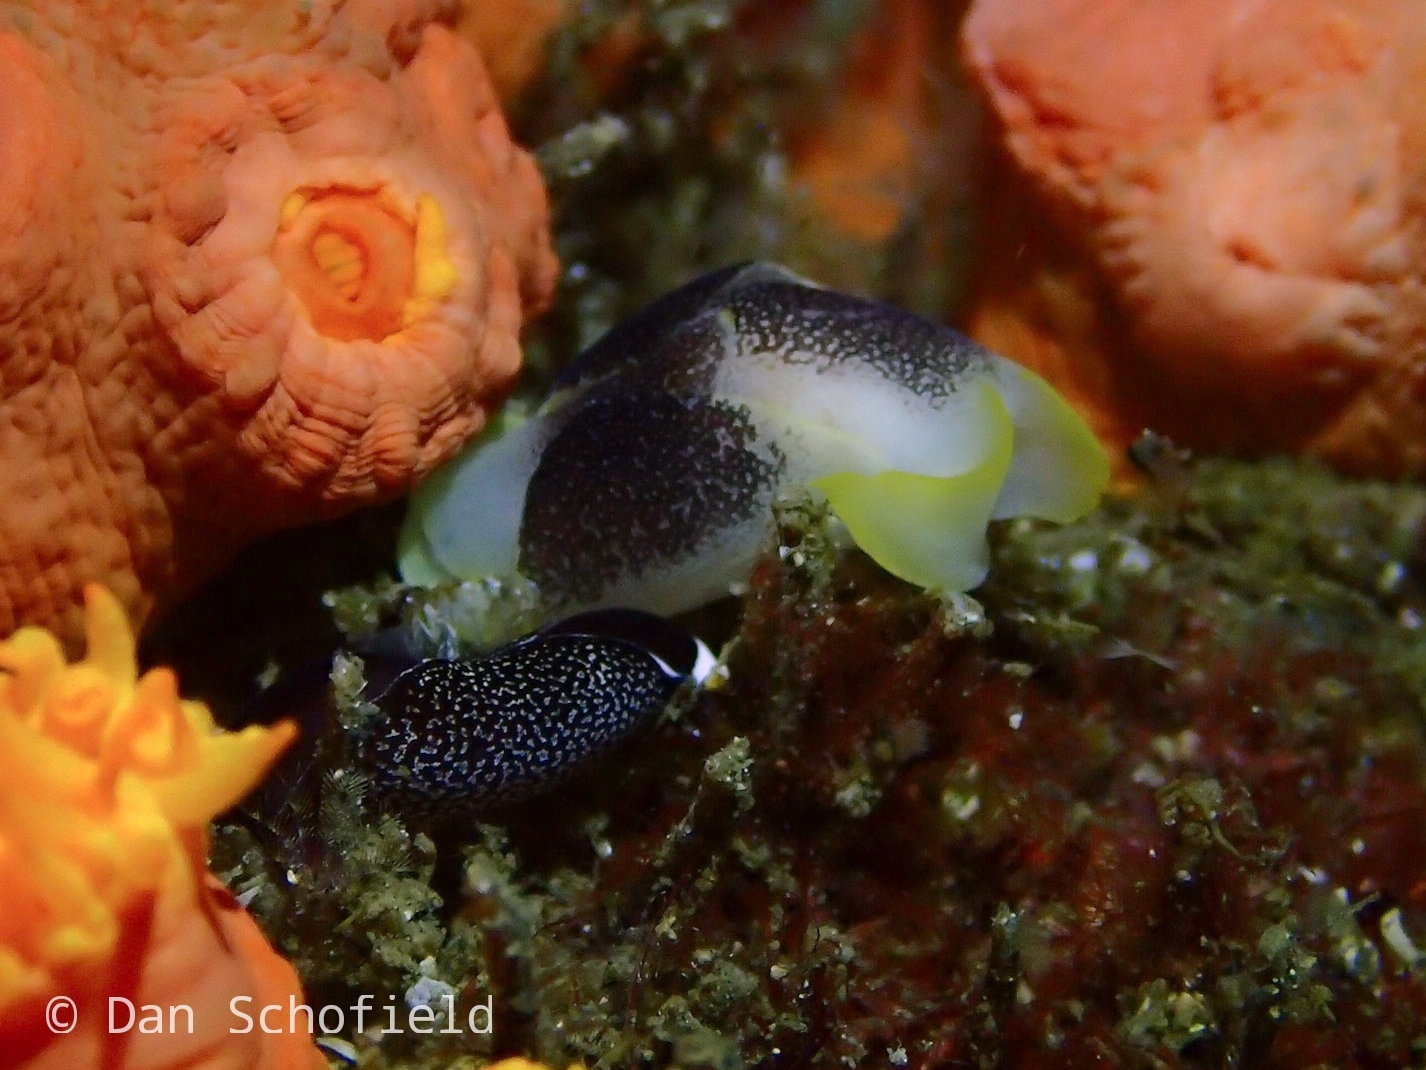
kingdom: Animalia
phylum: Mollusca
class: Gastropoda
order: Cephalaspidea
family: Aglajidae
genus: Chelidonura
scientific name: Chelidonura amoena
